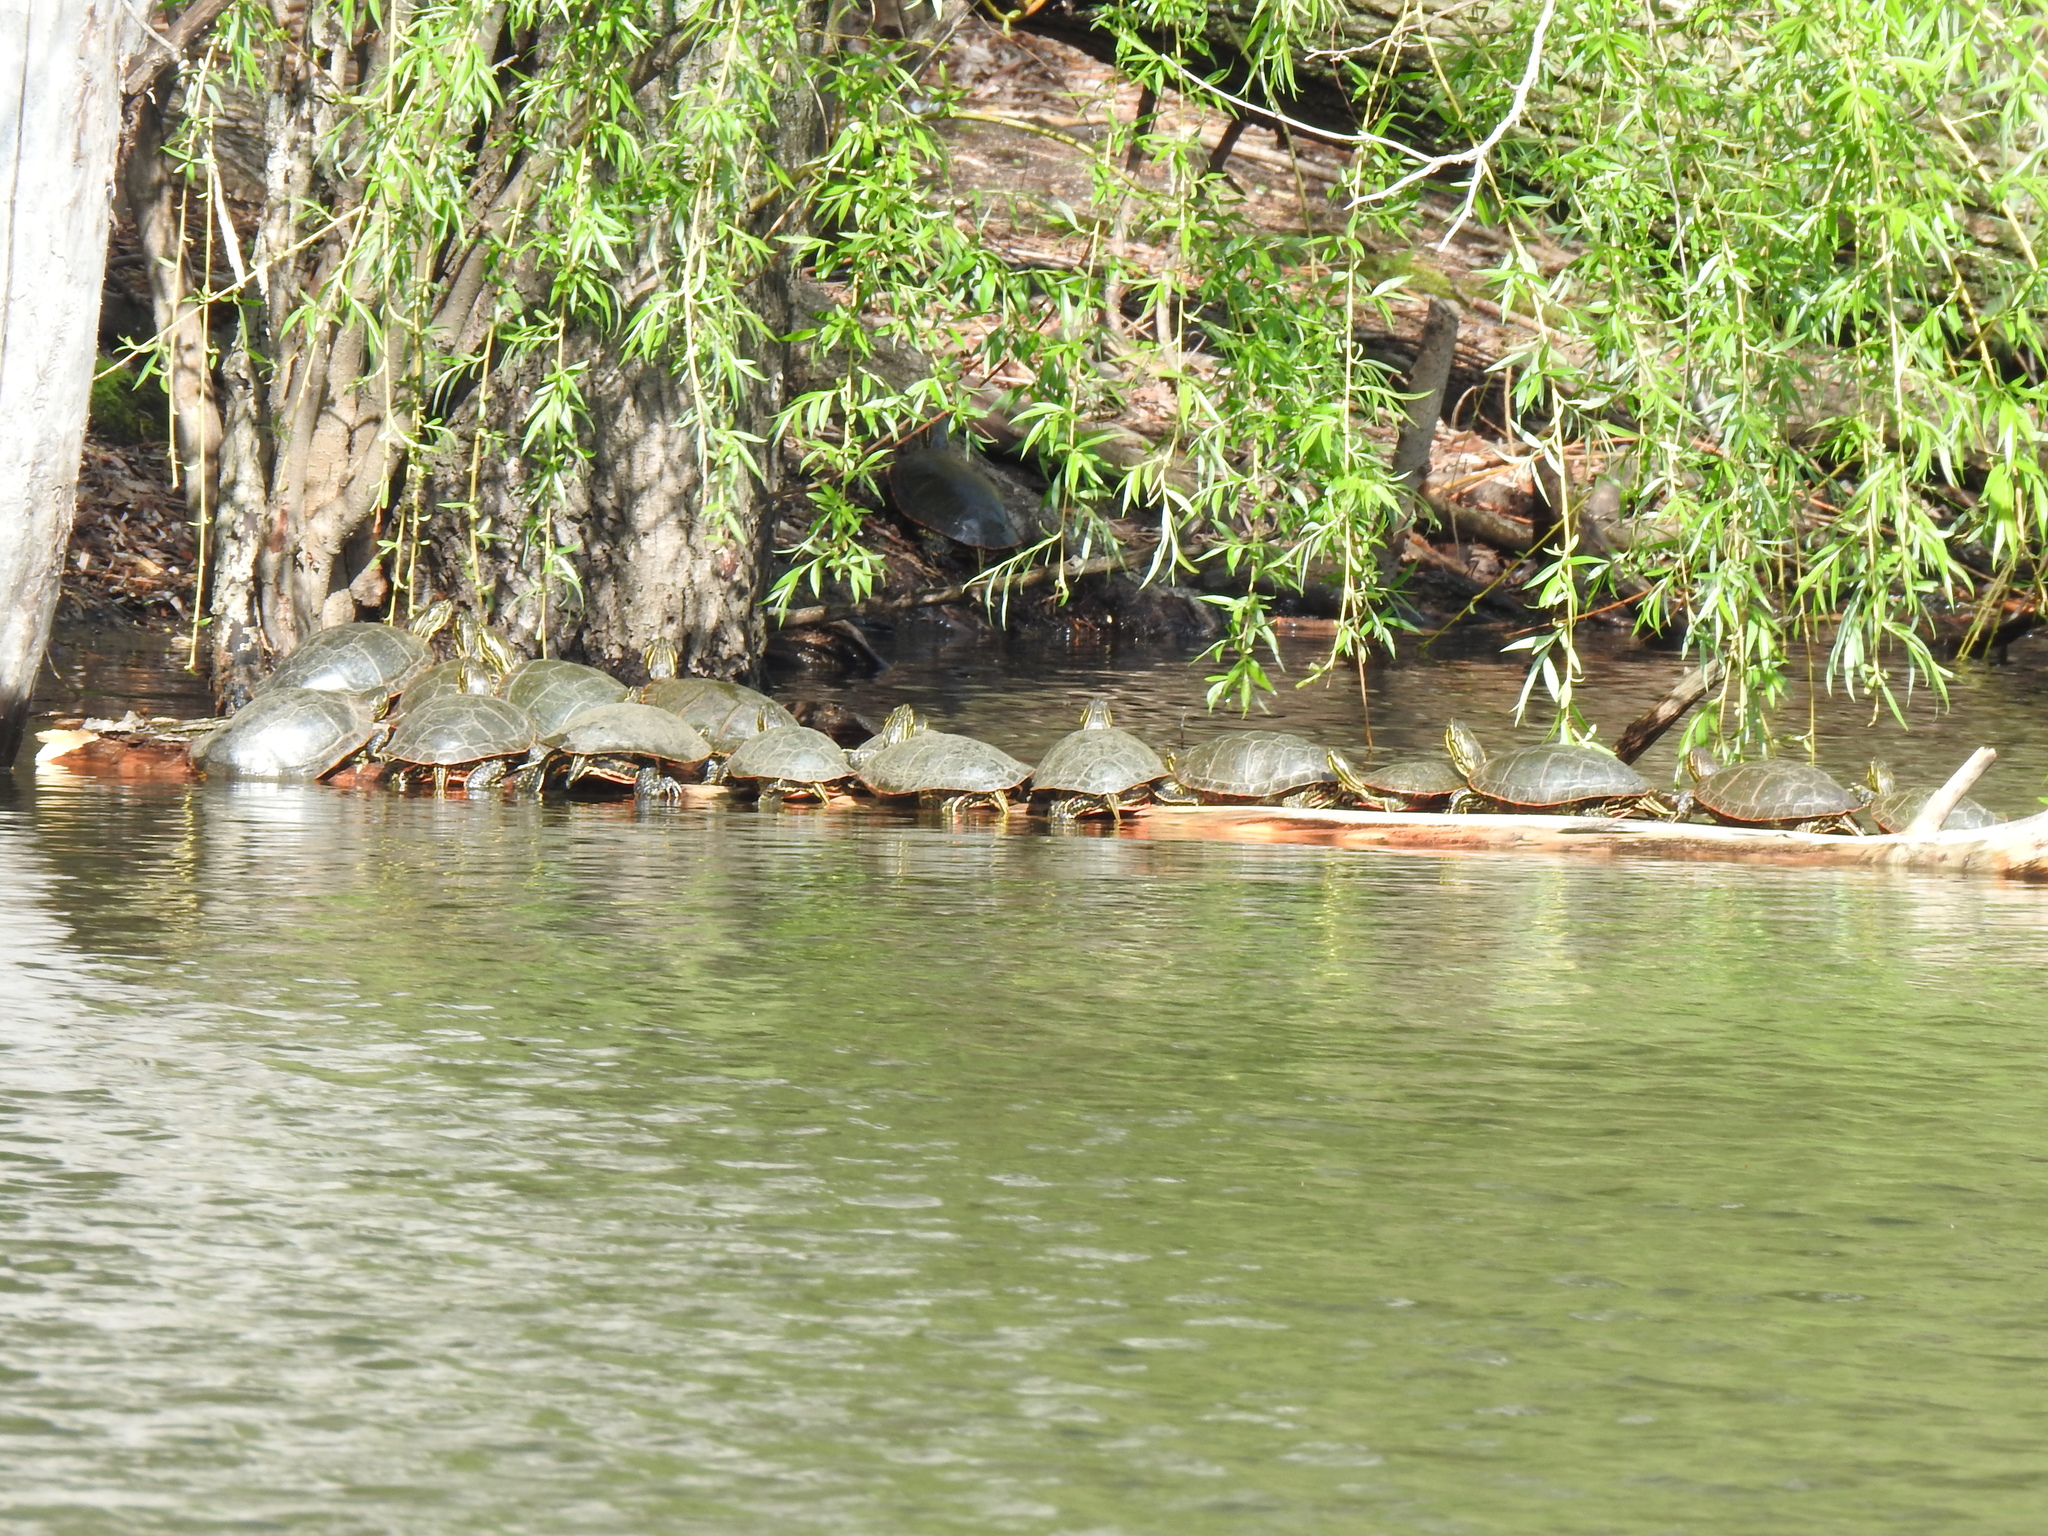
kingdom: Animalia
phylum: Chordata
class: Testudines
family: Emydidae
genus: Chrysemys
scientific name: Chrysemys picta
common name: Painted turtle
